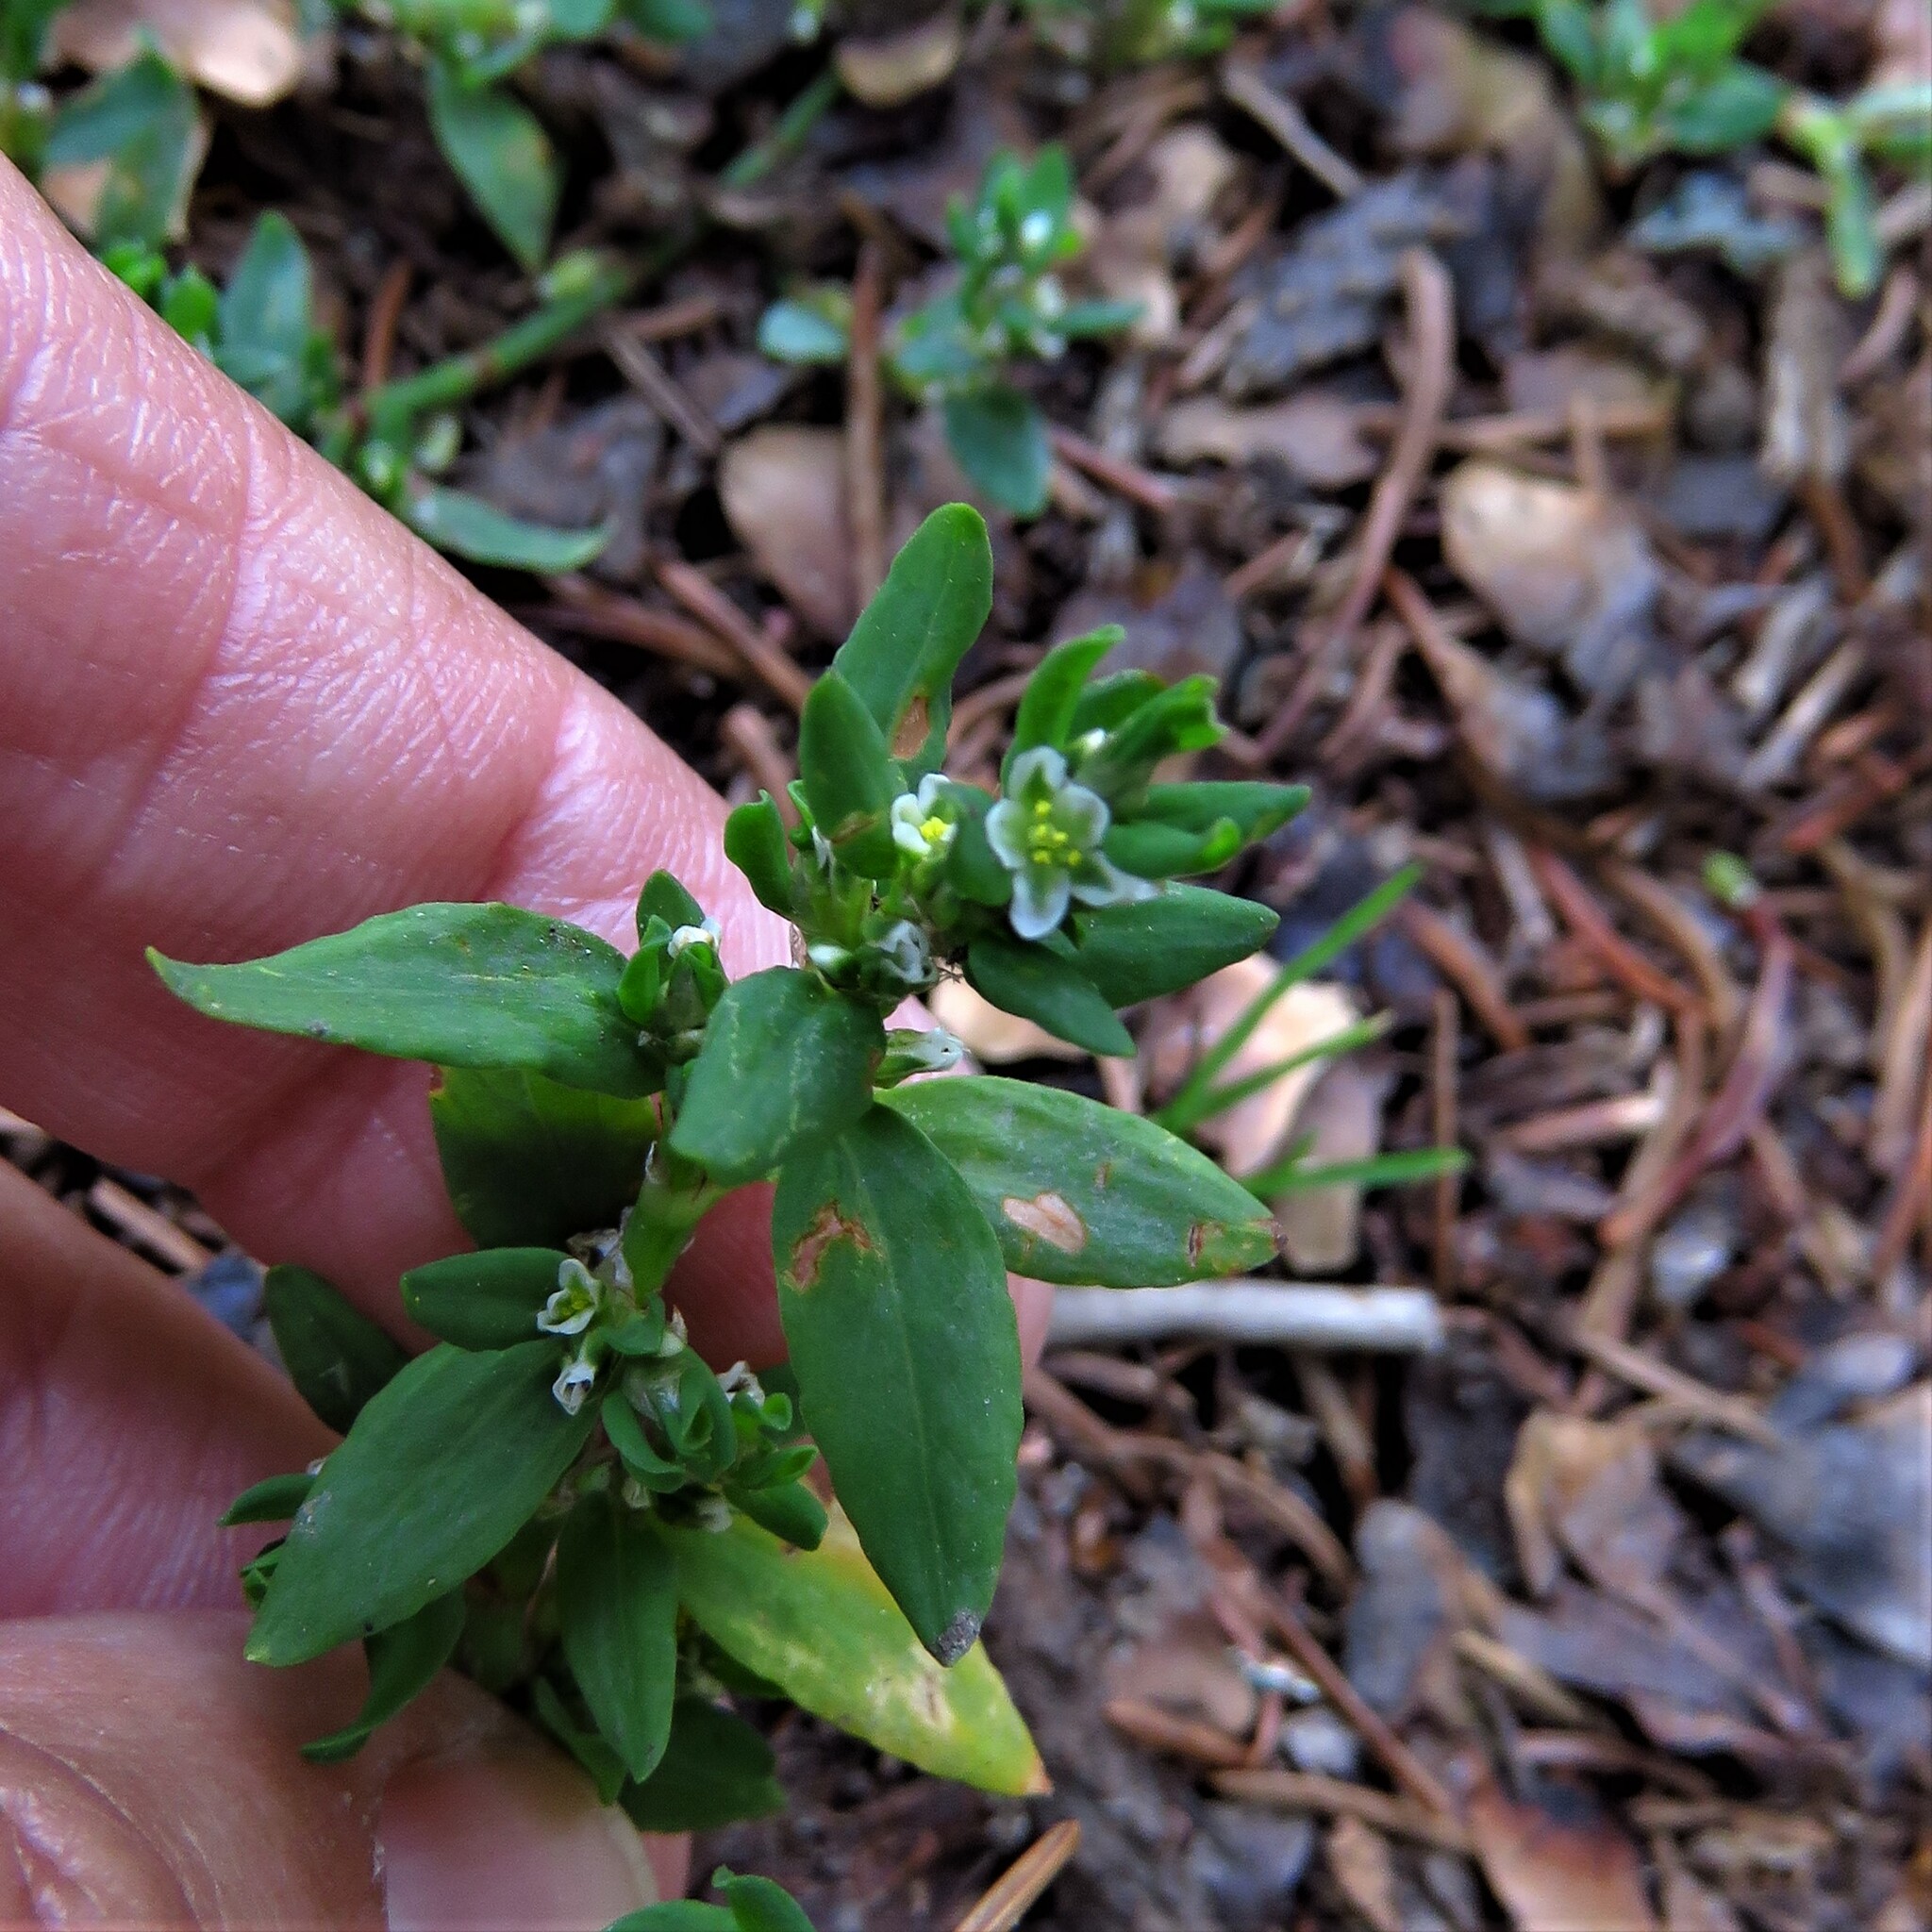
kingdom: Plantae
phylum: Tracheophyta
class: Magnoliopsida
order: Caryophyllales
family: Polygonaceae
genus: Polygonum
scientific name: Polygonum aviculare
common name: Prostrate knotweed
